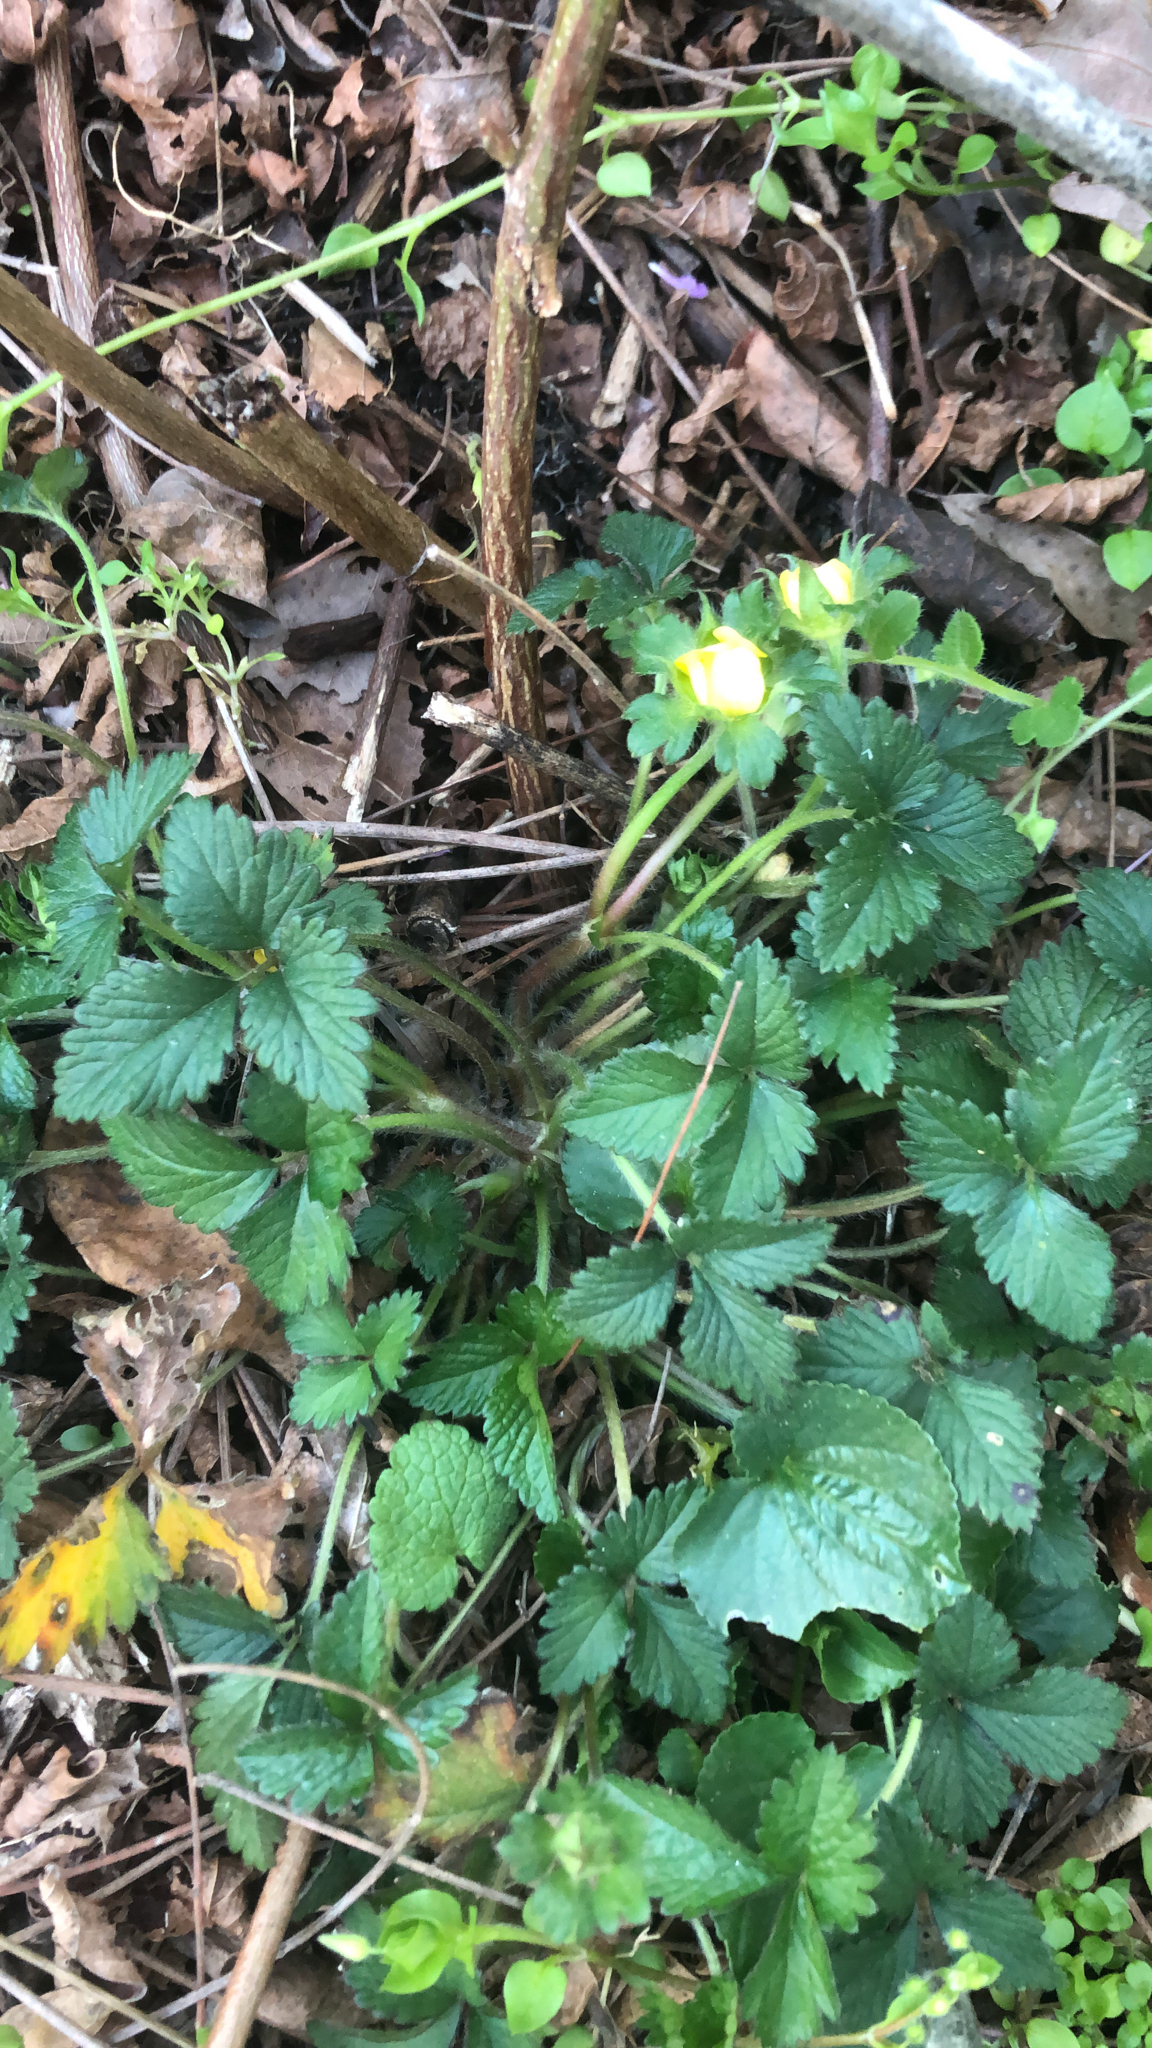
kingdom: Plantae
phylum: Tracheophyta
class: Magnoliopsida
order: Rosales
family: Rosaceae
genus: Potentilla
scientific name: Potentilla indica
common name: Yellow-flowered strawberry
